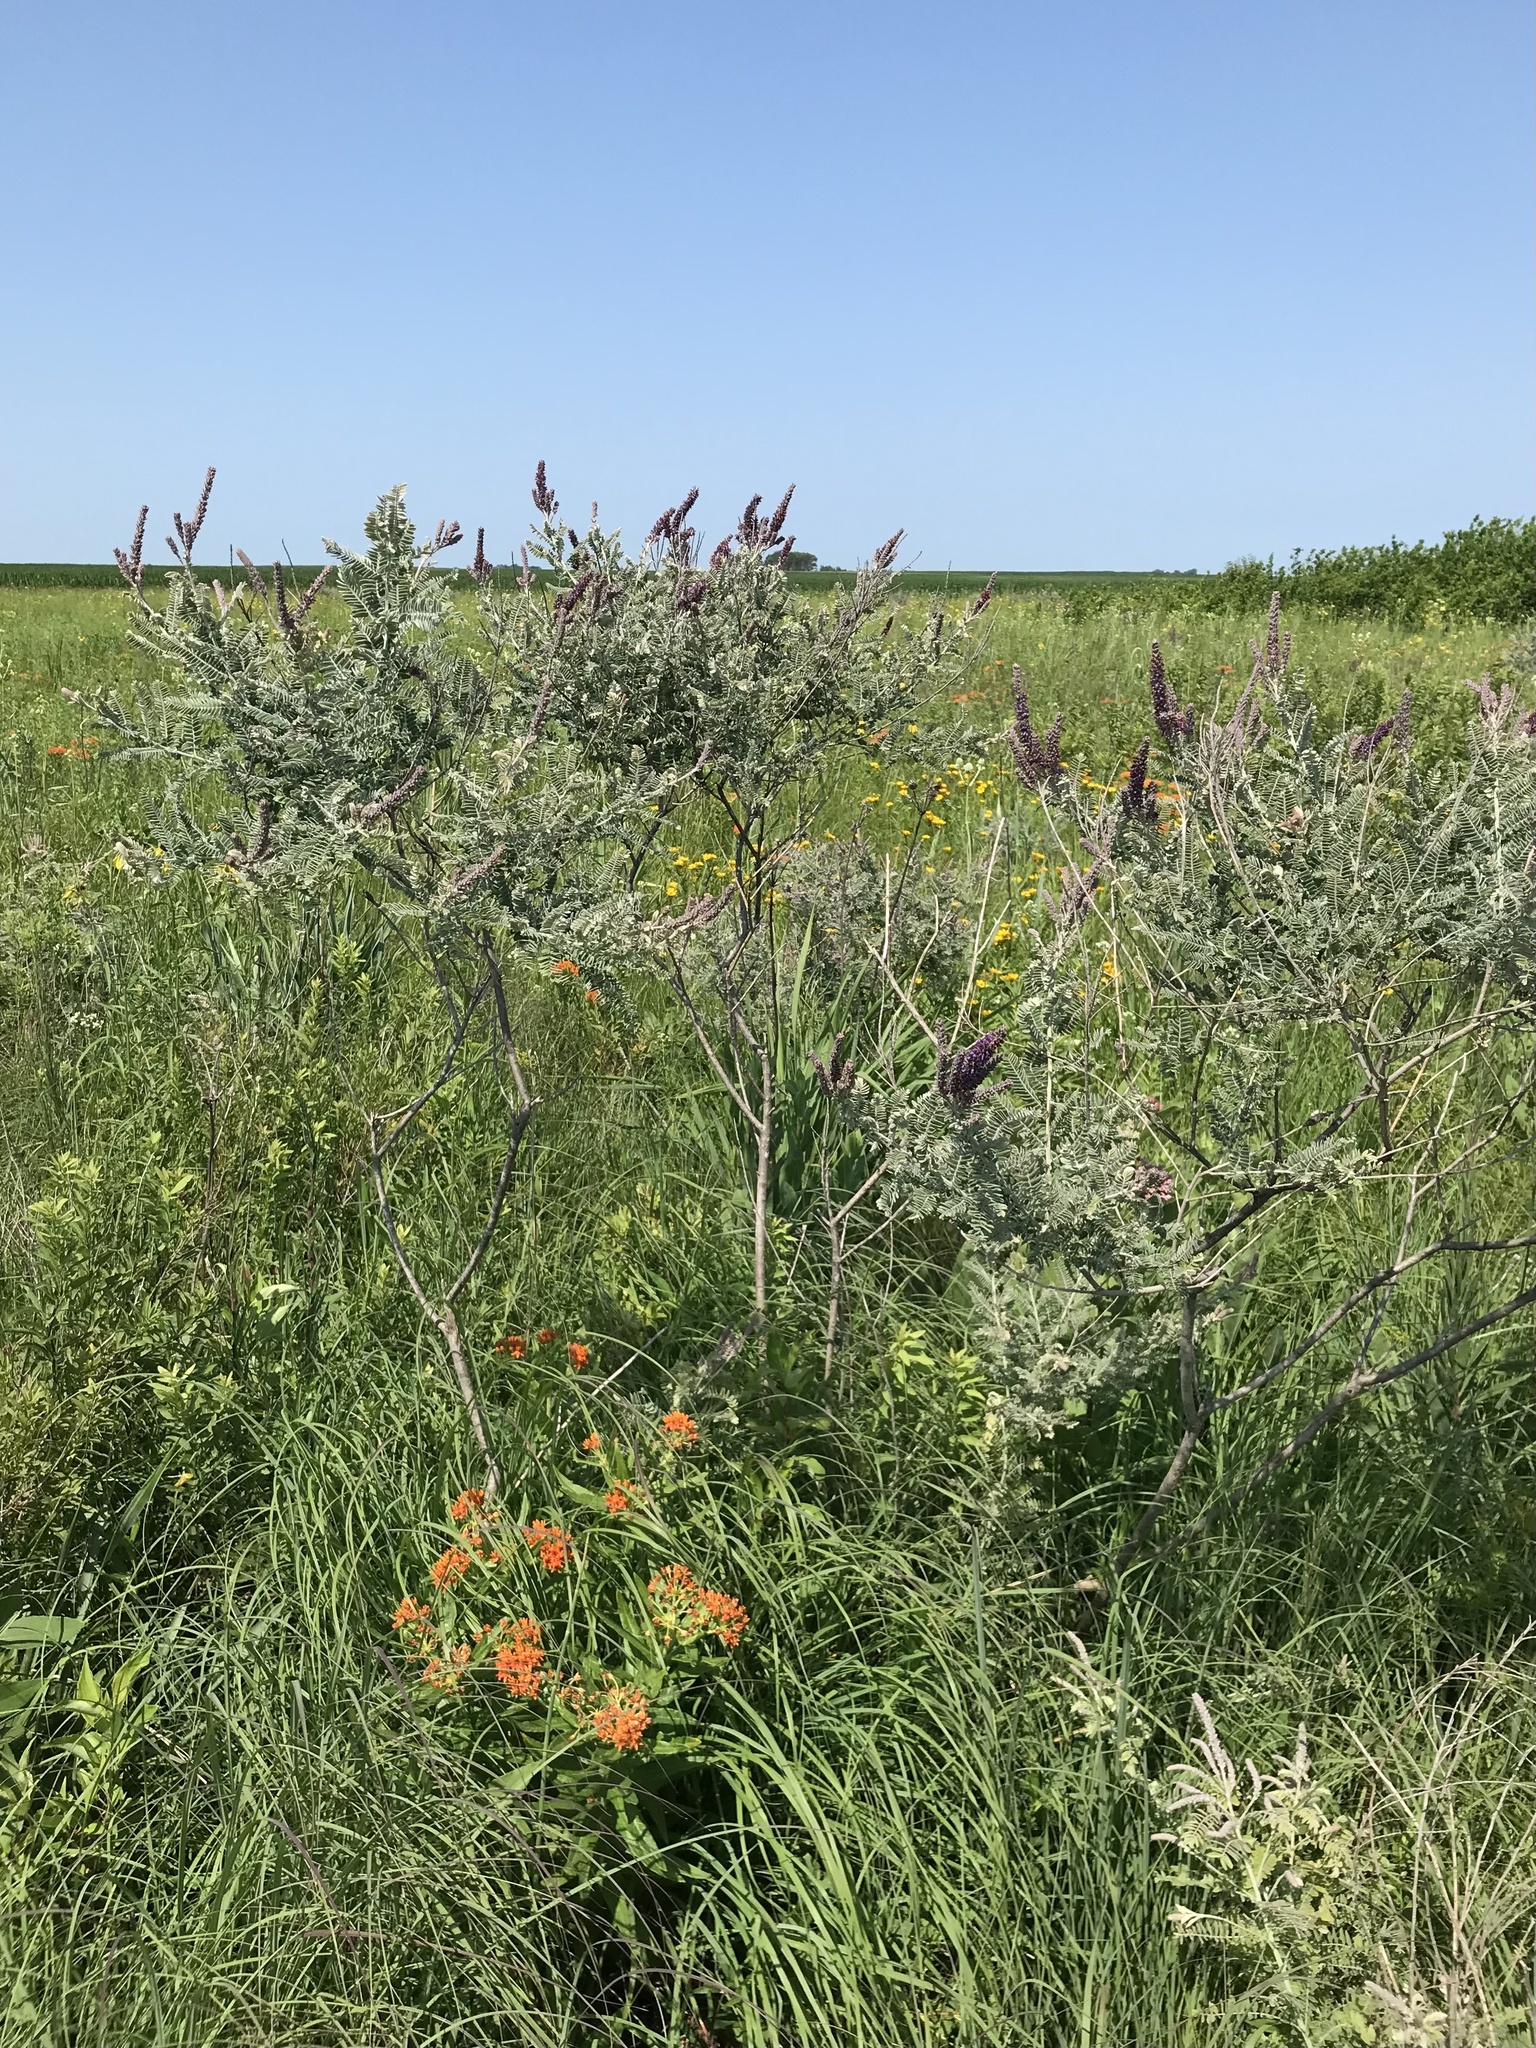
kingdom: Plantae
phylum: Tracheophyta
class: Magnoliopsida
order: Fabales
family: Fabaceae
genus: Amorpha
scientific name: Amorpha canescens
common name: Leadplant
